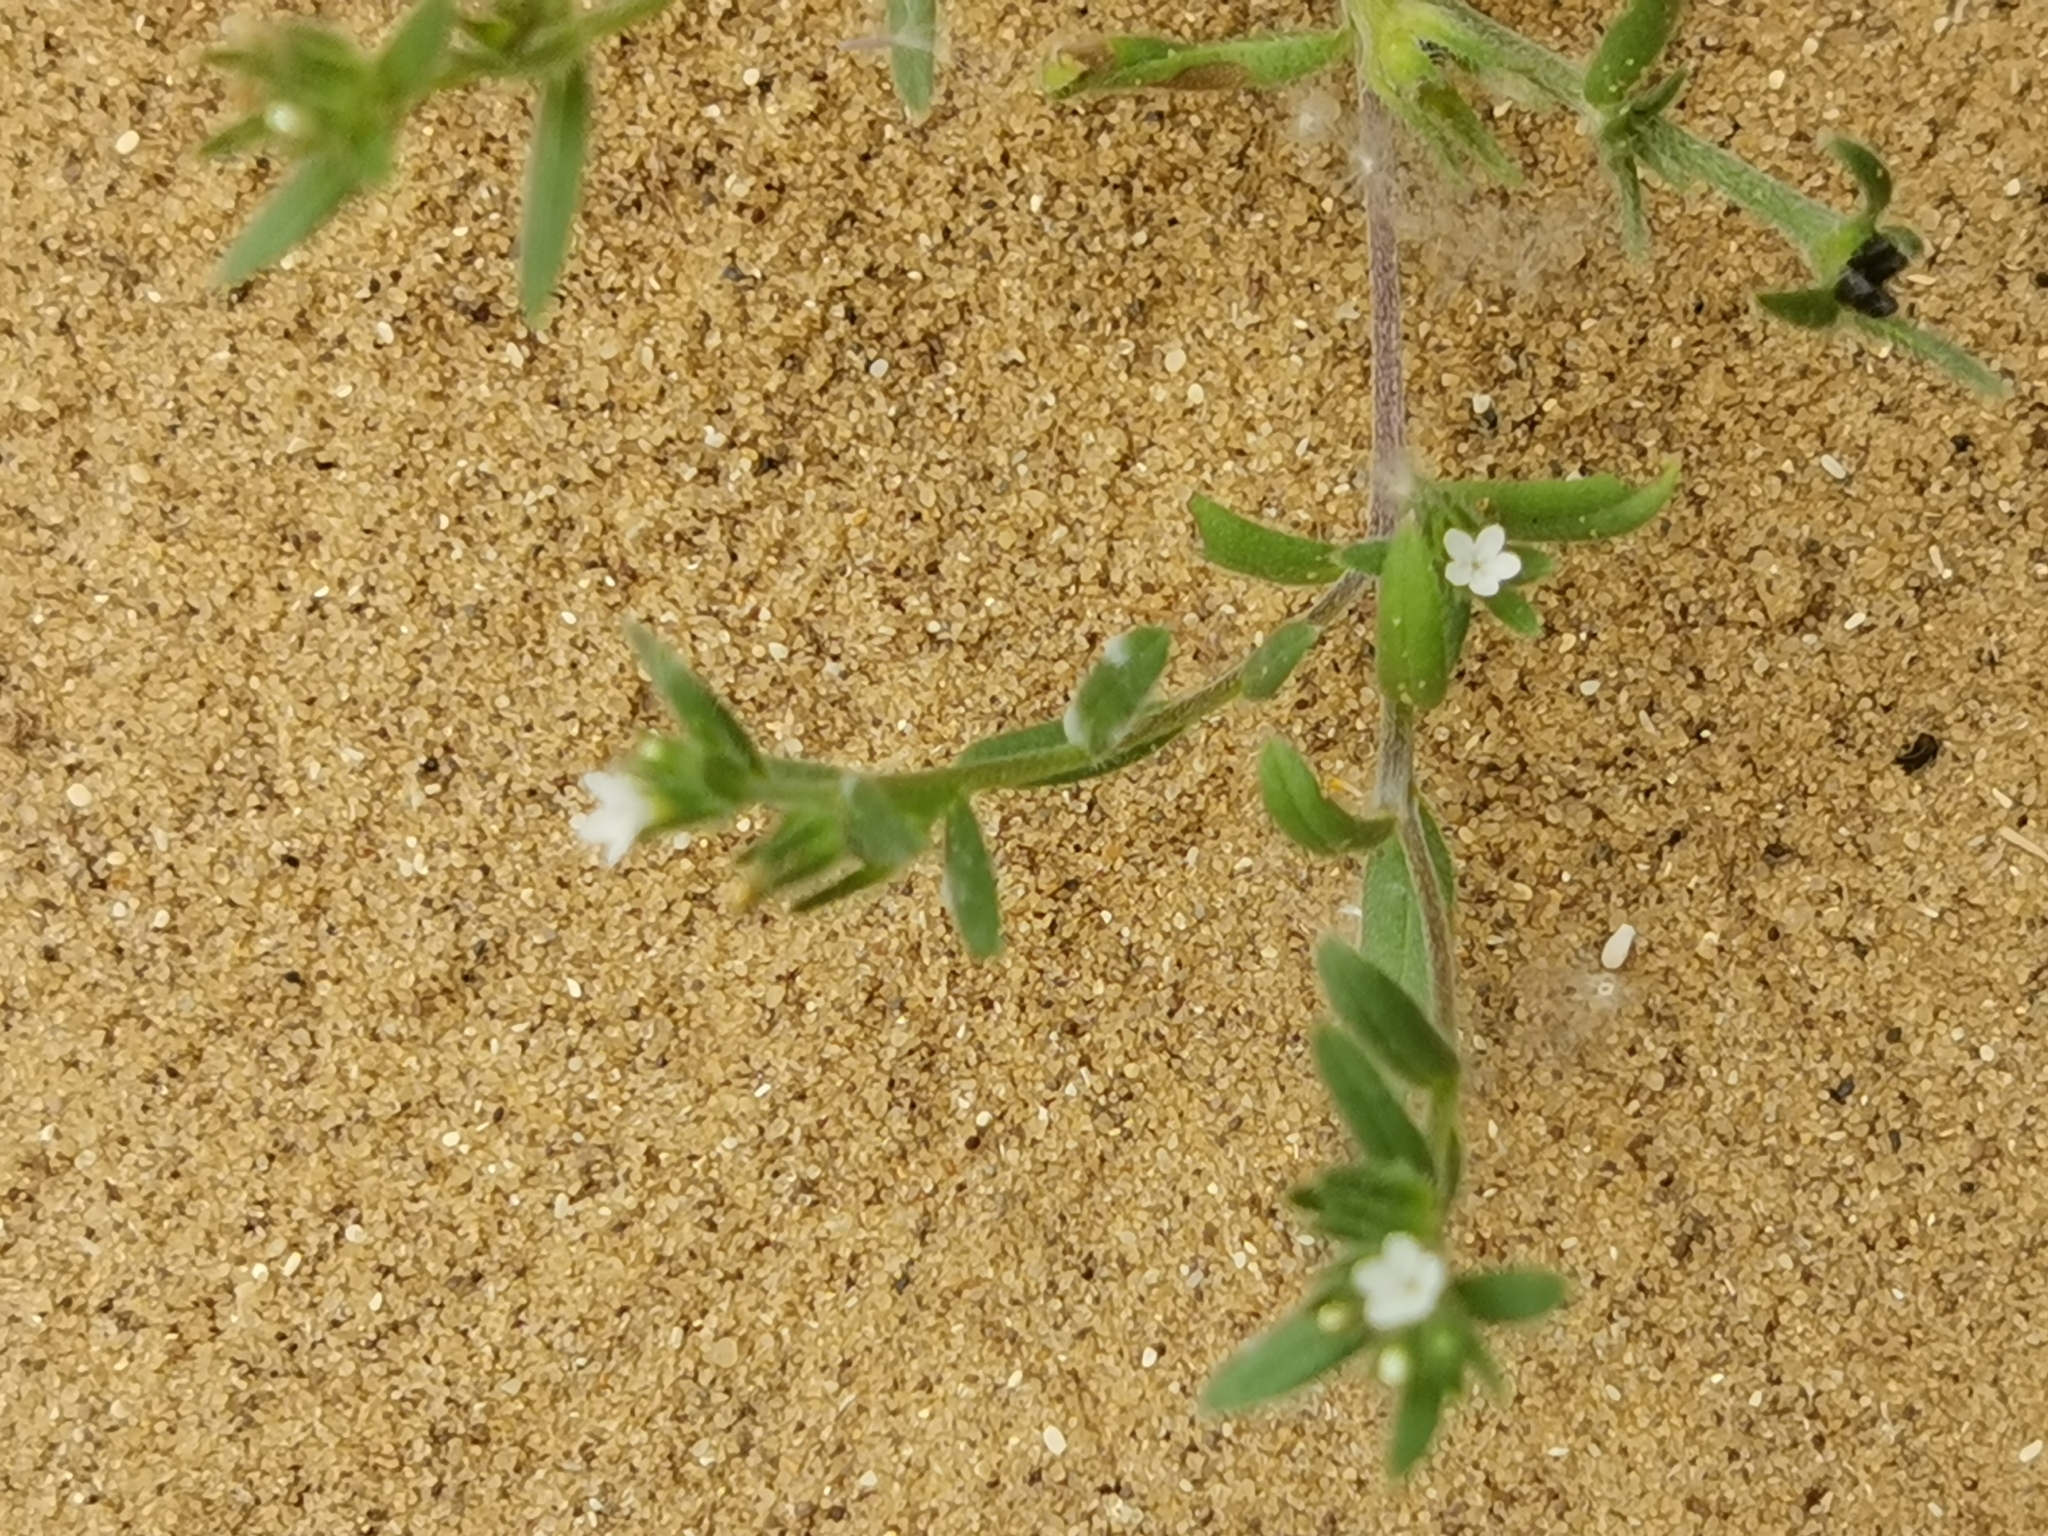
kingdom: Plantae
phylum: Tracheophyta
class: Magnoliopsida
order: Boraginales
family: Boraginaceae
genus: Buglossoides
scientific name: Buglossoides arvensis
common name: Corn gromwell
